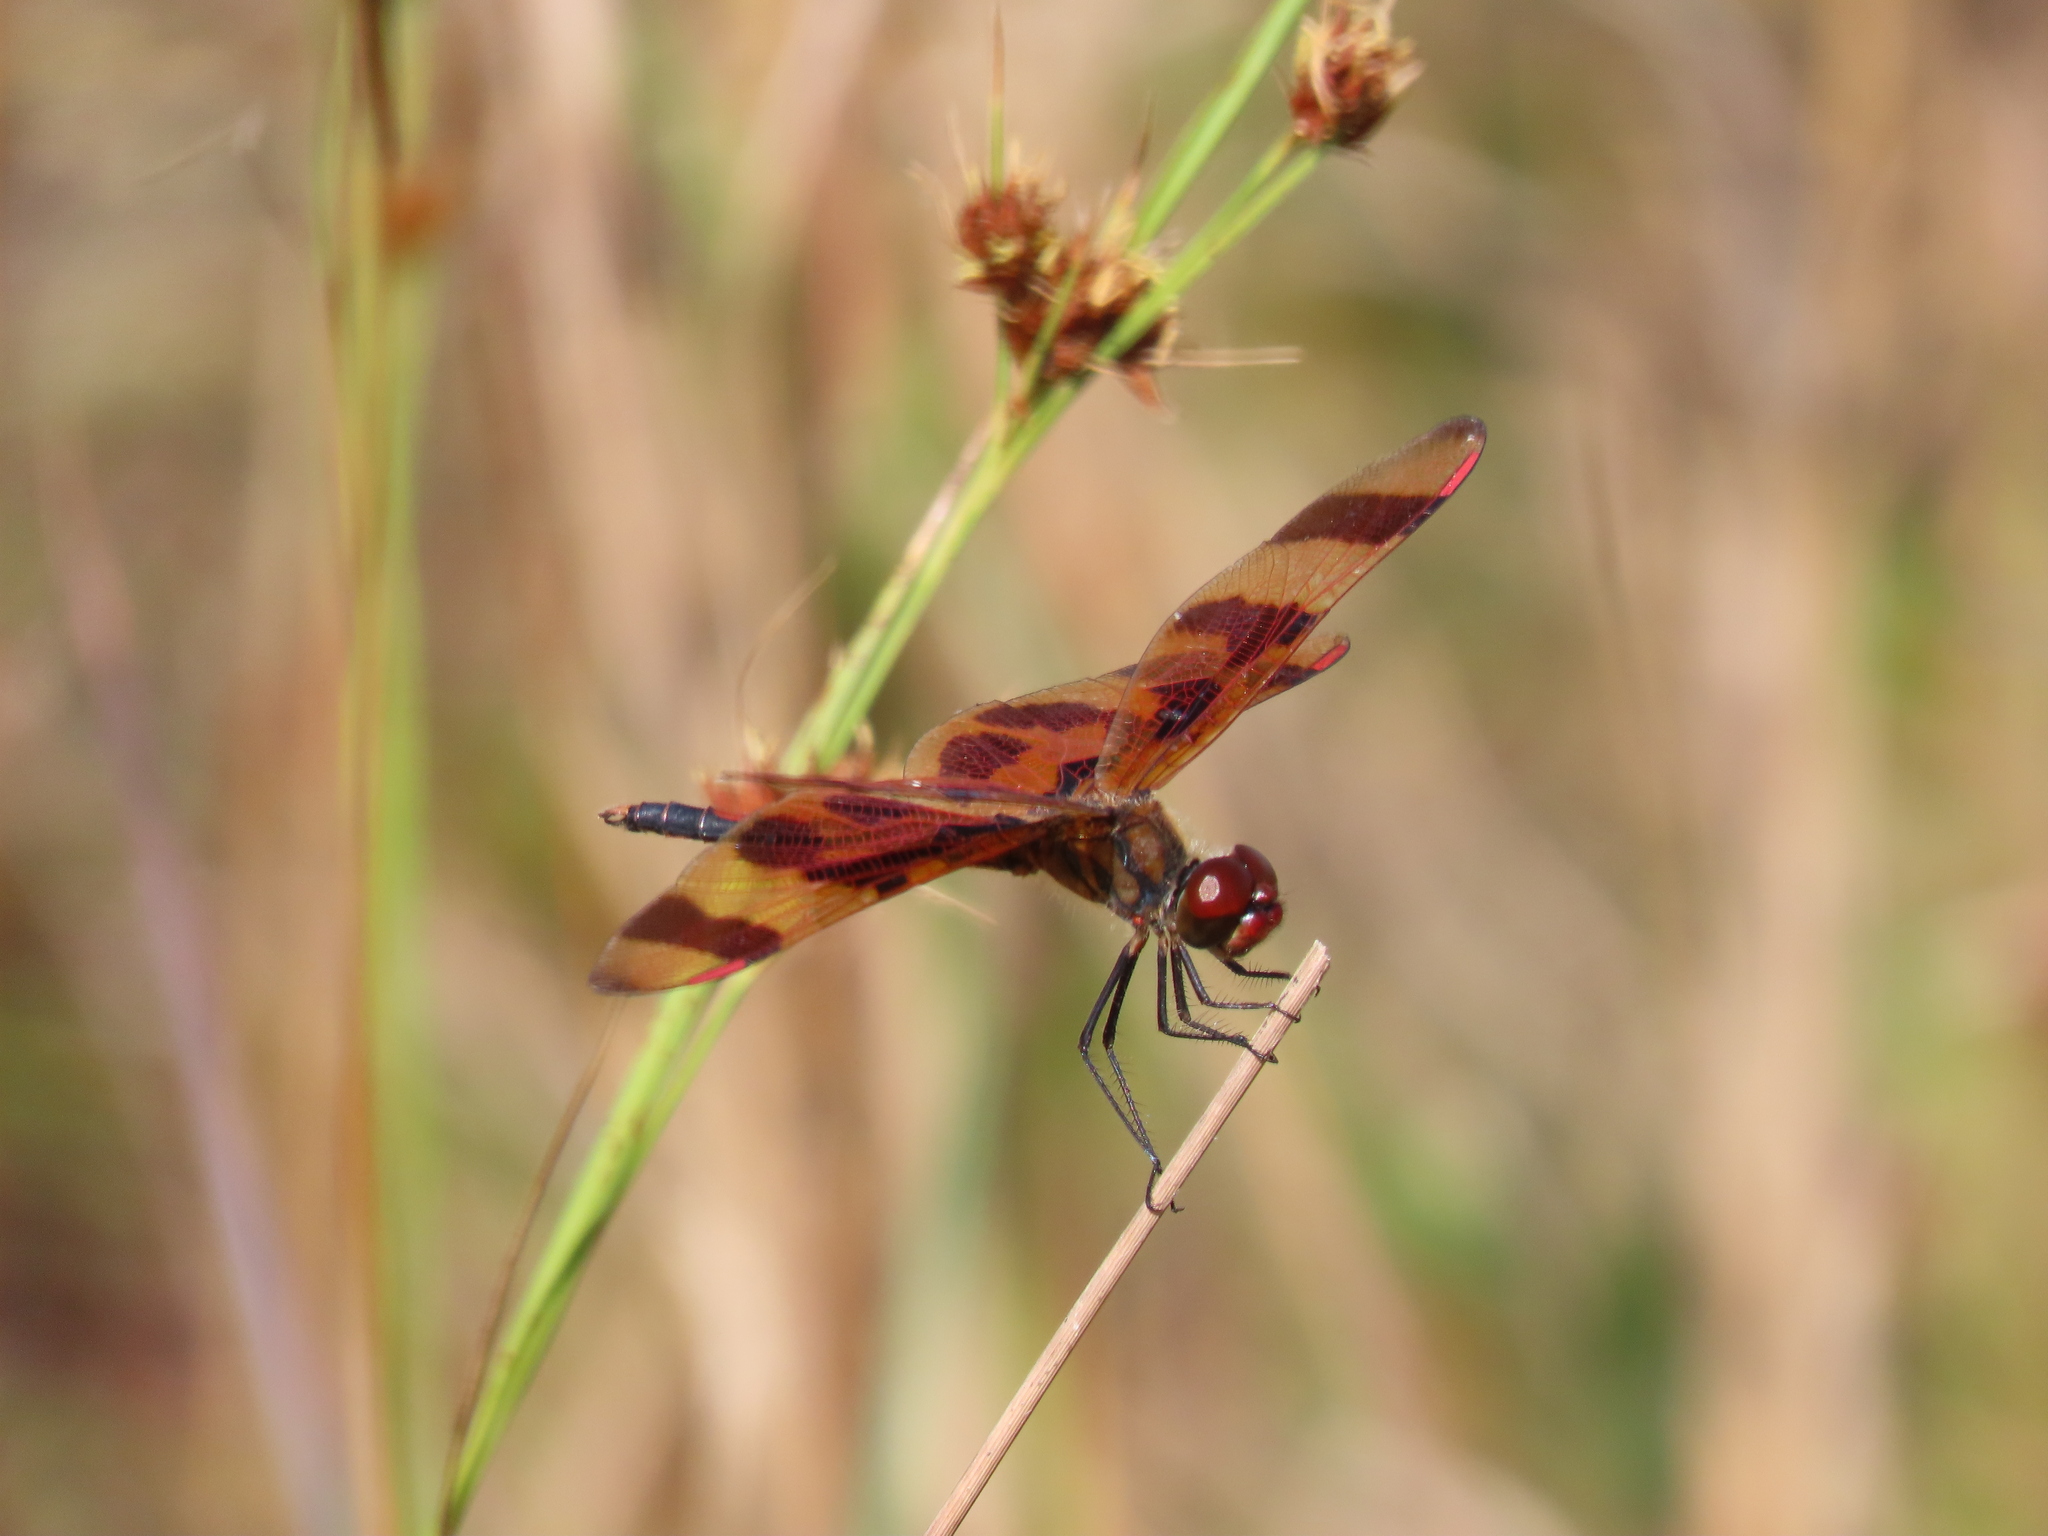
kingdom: Animalia
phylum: Arthropoda
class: Insecta
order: Odonata
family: Libellulidae
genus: Celithemis
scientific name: Celithemis eponina
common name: Halloween pennant
